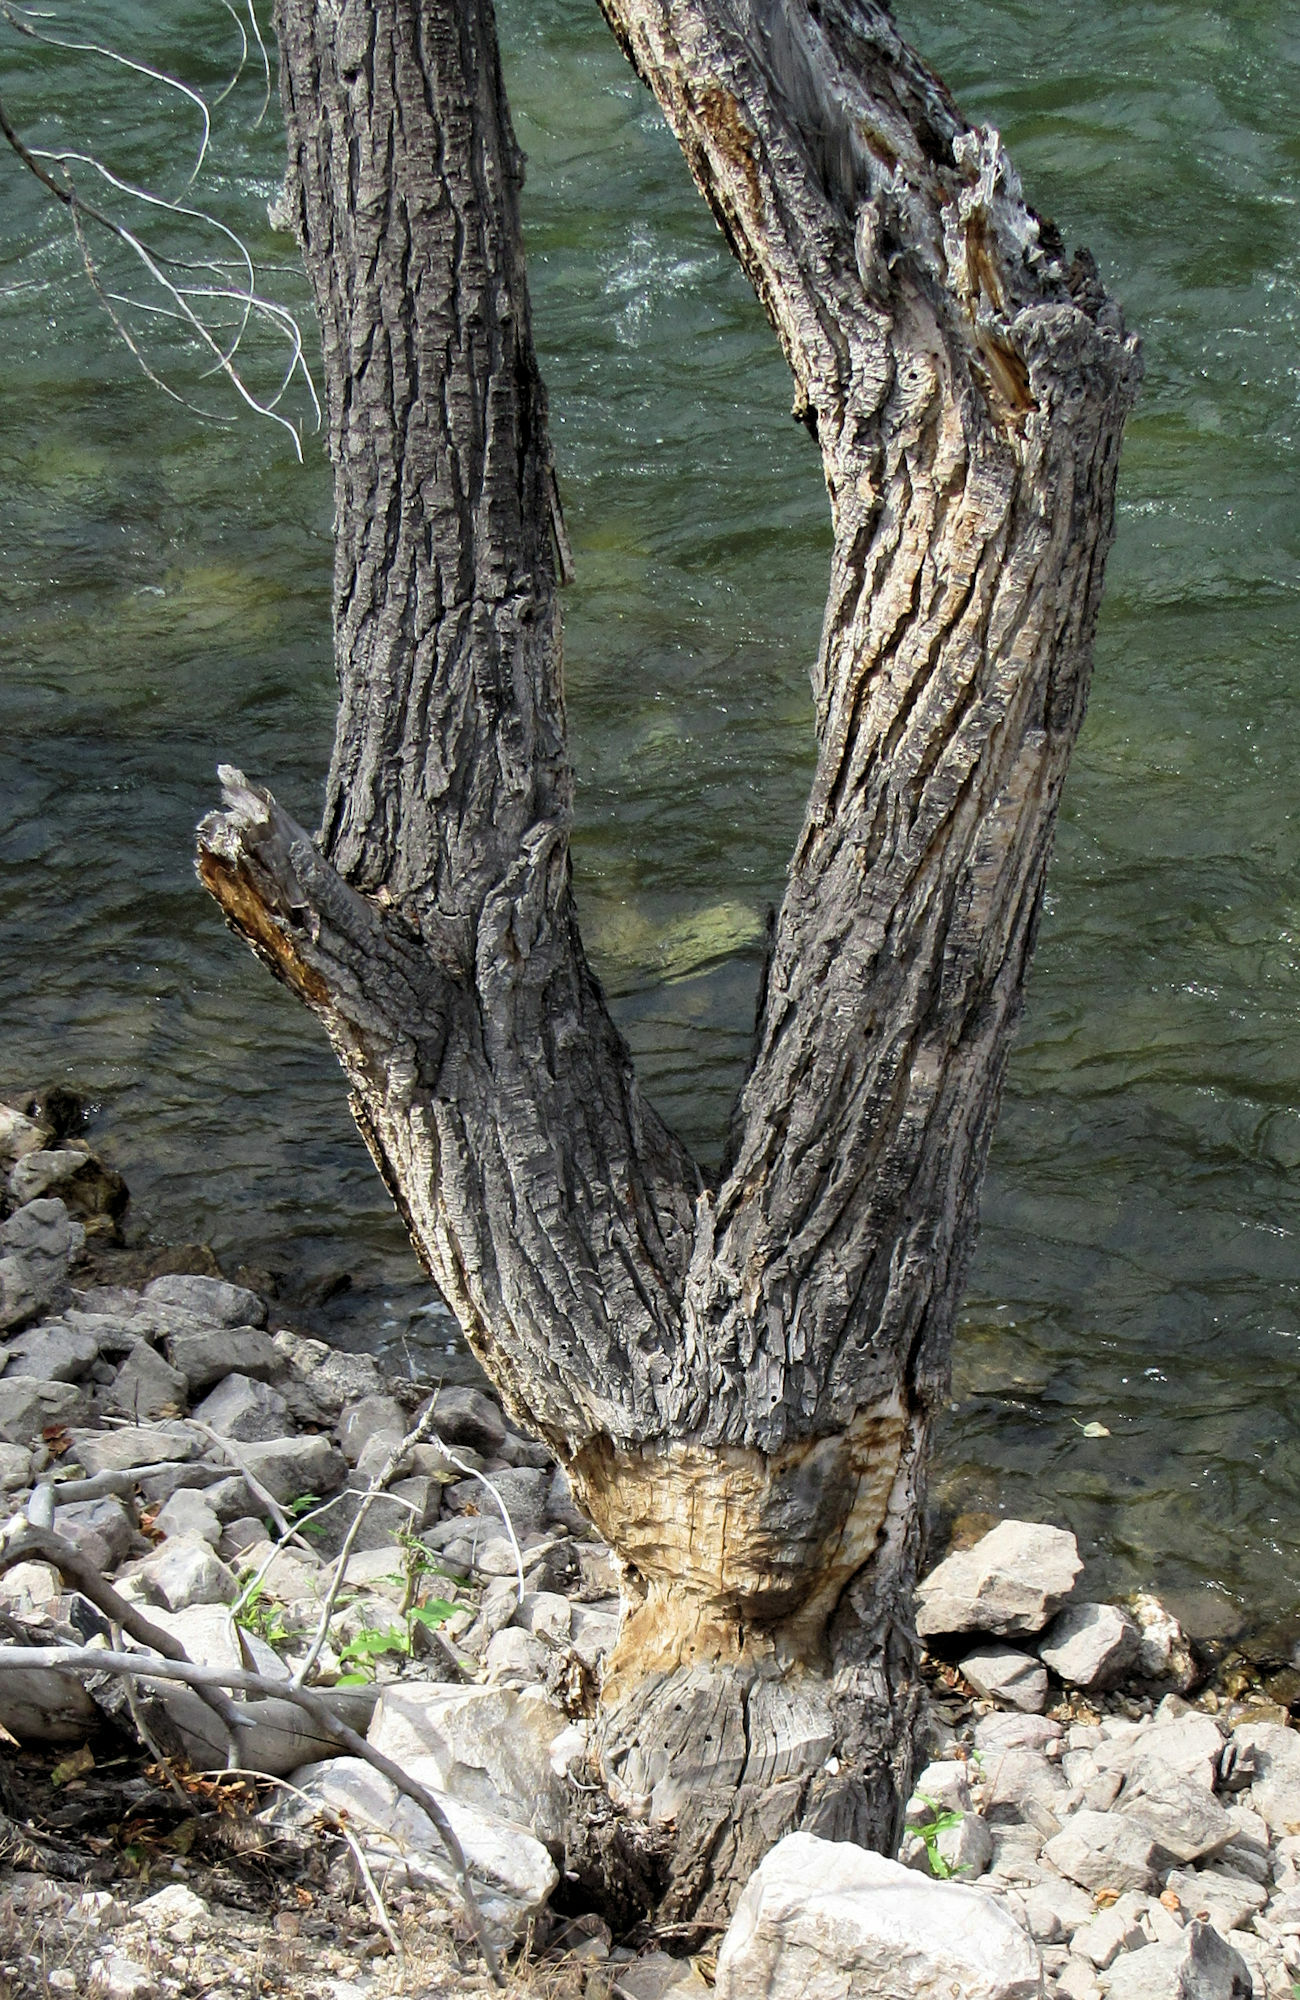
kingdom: Animalia
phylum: Chordata
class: Mammalia
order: Rodentia
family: Castoridae
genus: Castor
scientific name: Castor canadensis
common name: American beaver
